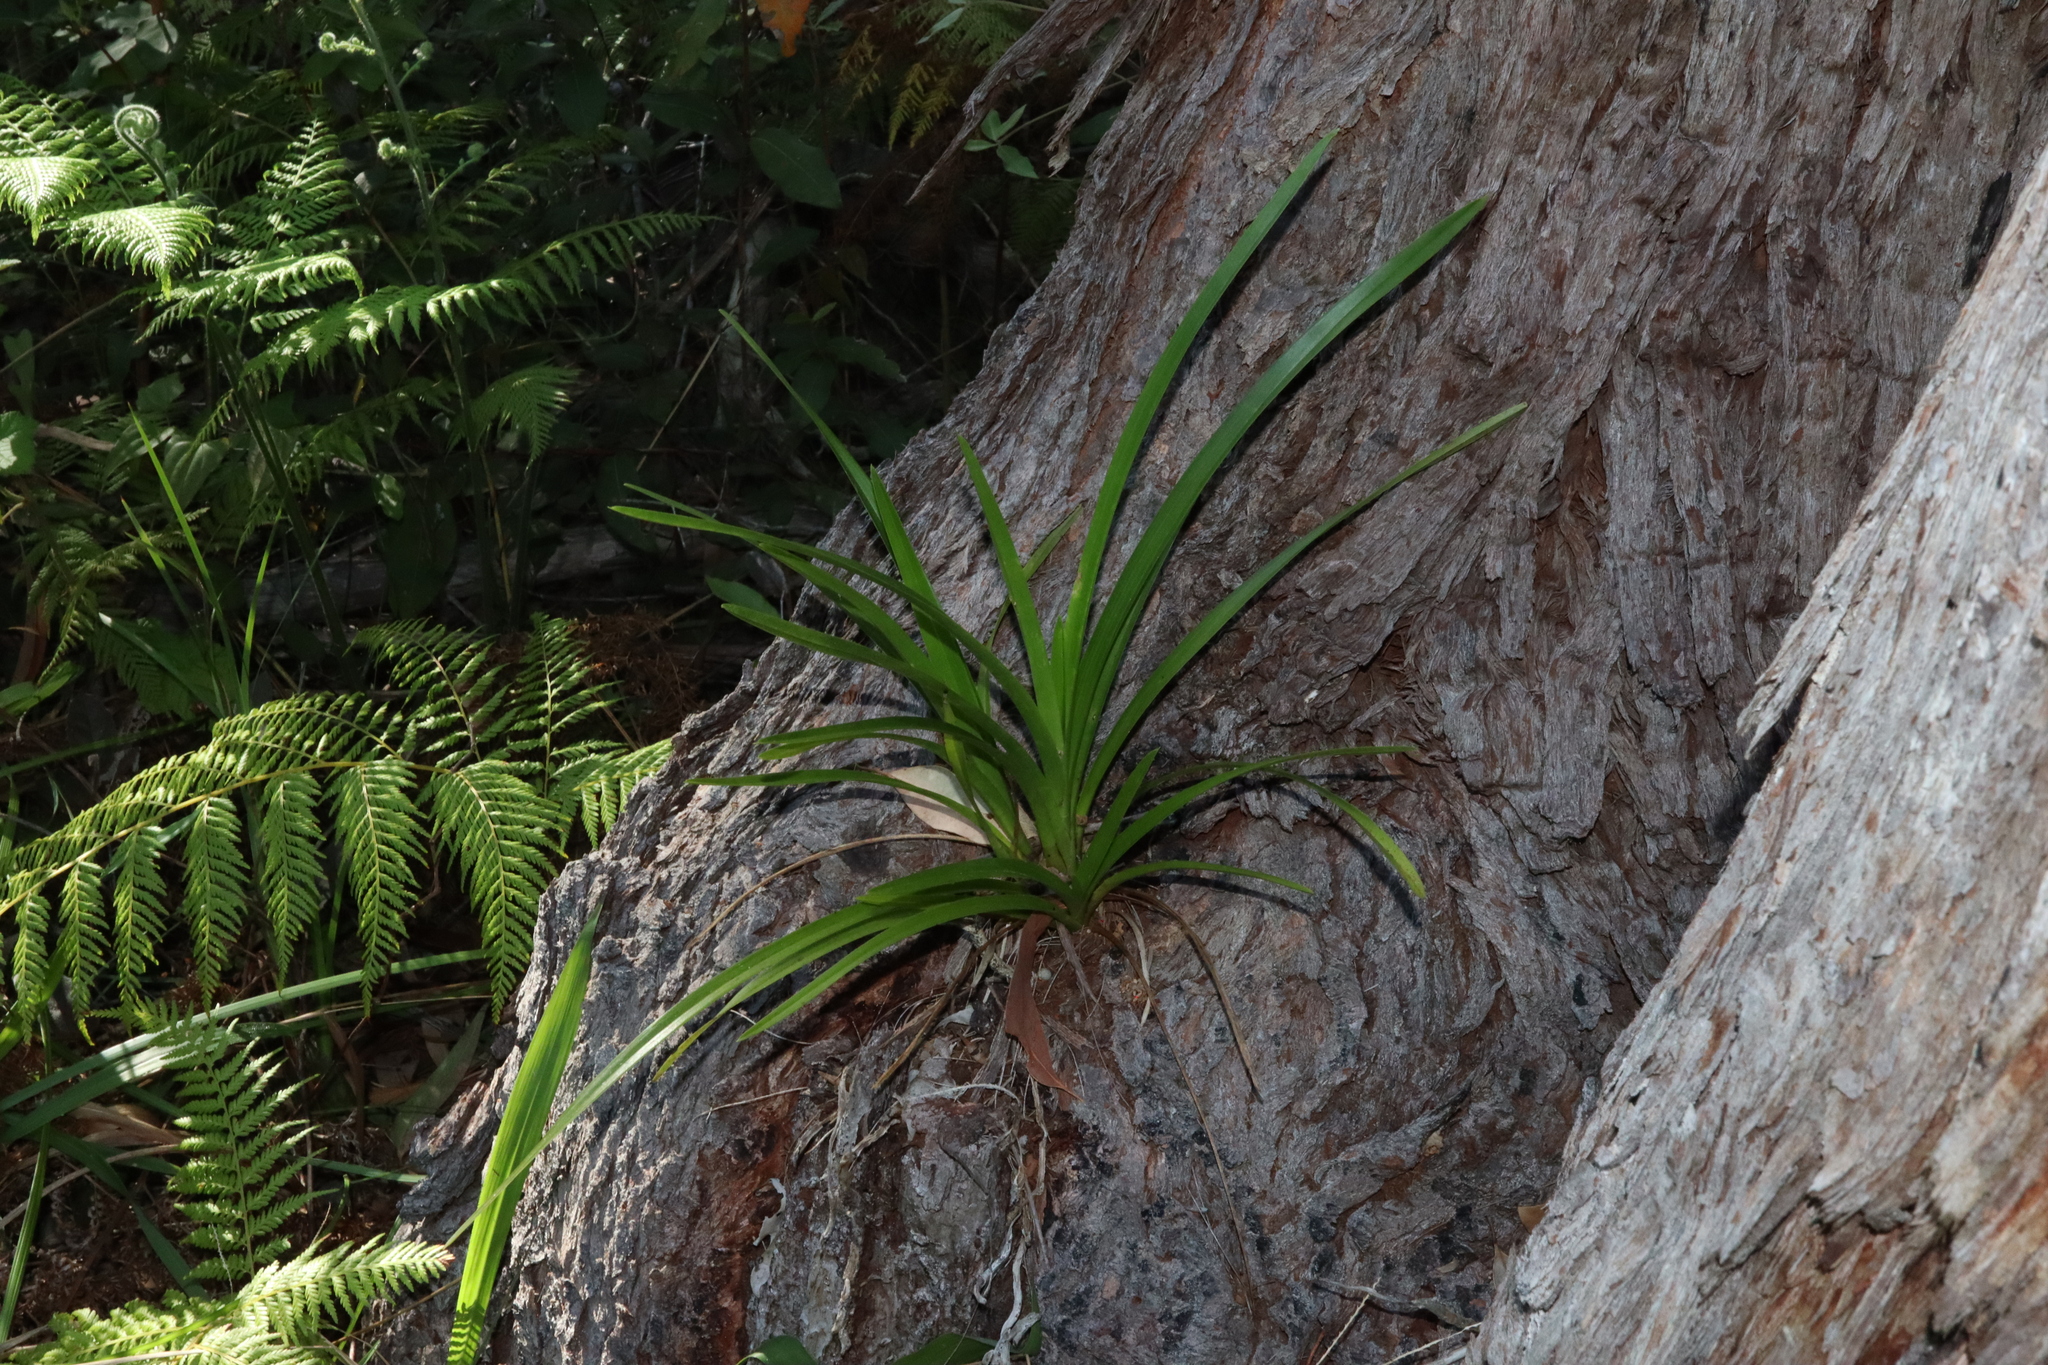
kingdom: Plantae
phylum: Tracheophyta
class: Liliopsida
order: Asparagales
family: Orchidaceae
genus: Cymbidium
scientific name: Cymbidium suave
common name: Snake orchid
